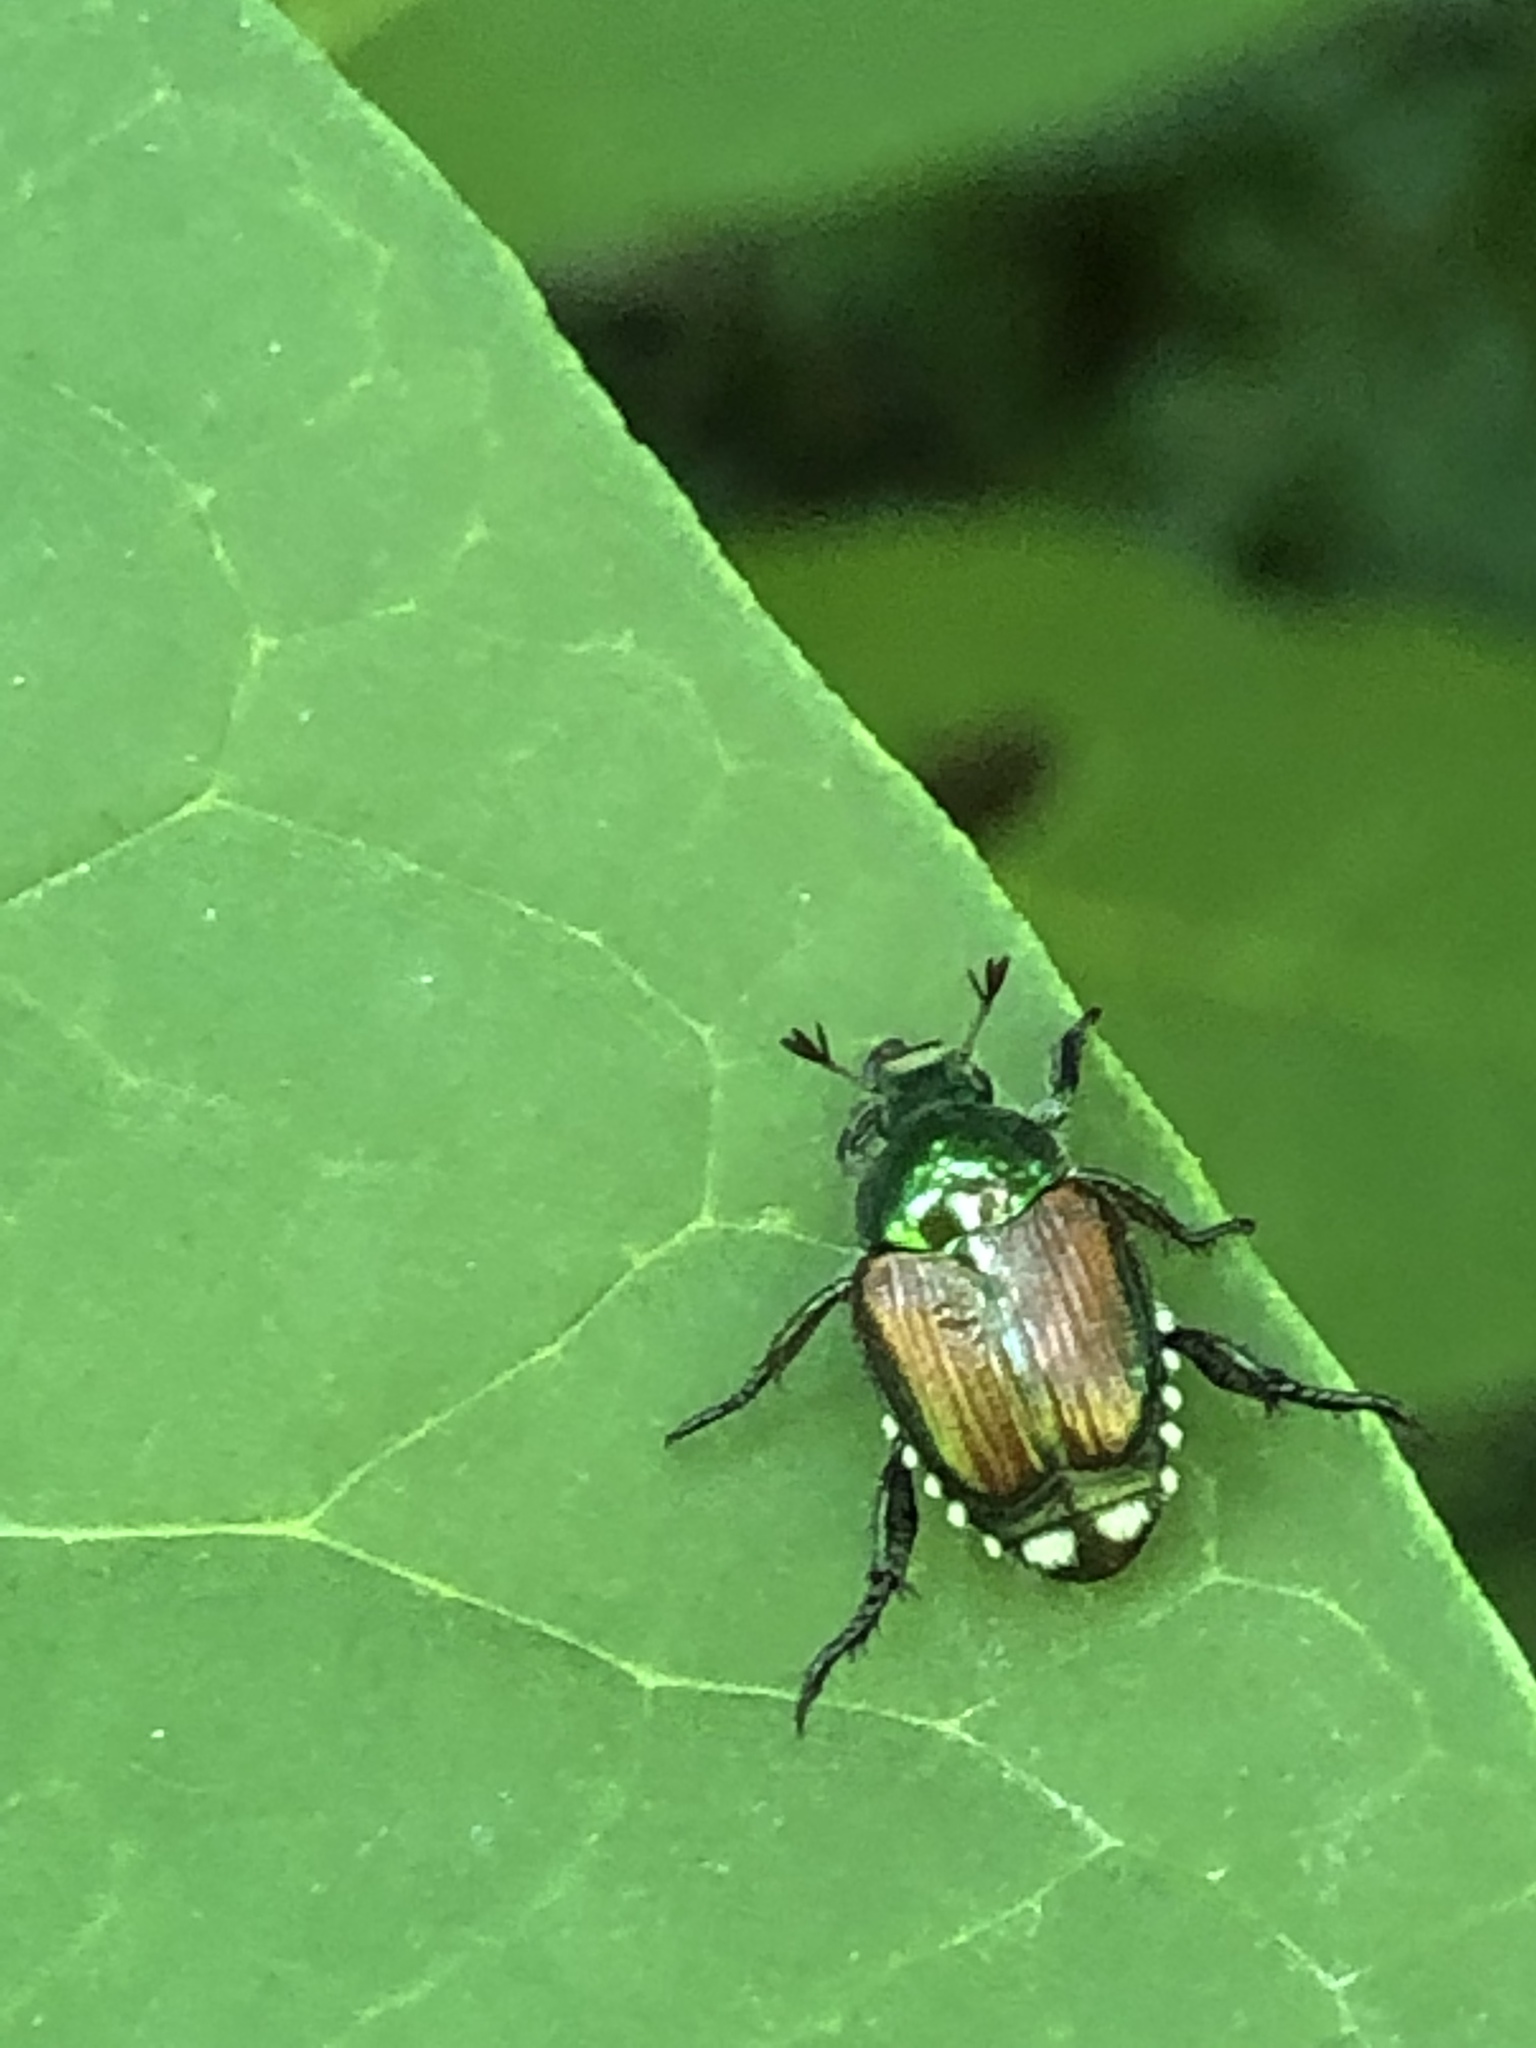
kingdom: Animalia
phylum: Arthropoda
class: Insecta
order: Coleoptera
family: Scarabaeidae
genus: Popillia
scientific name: Popillia japonica
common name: Japanese beetle
